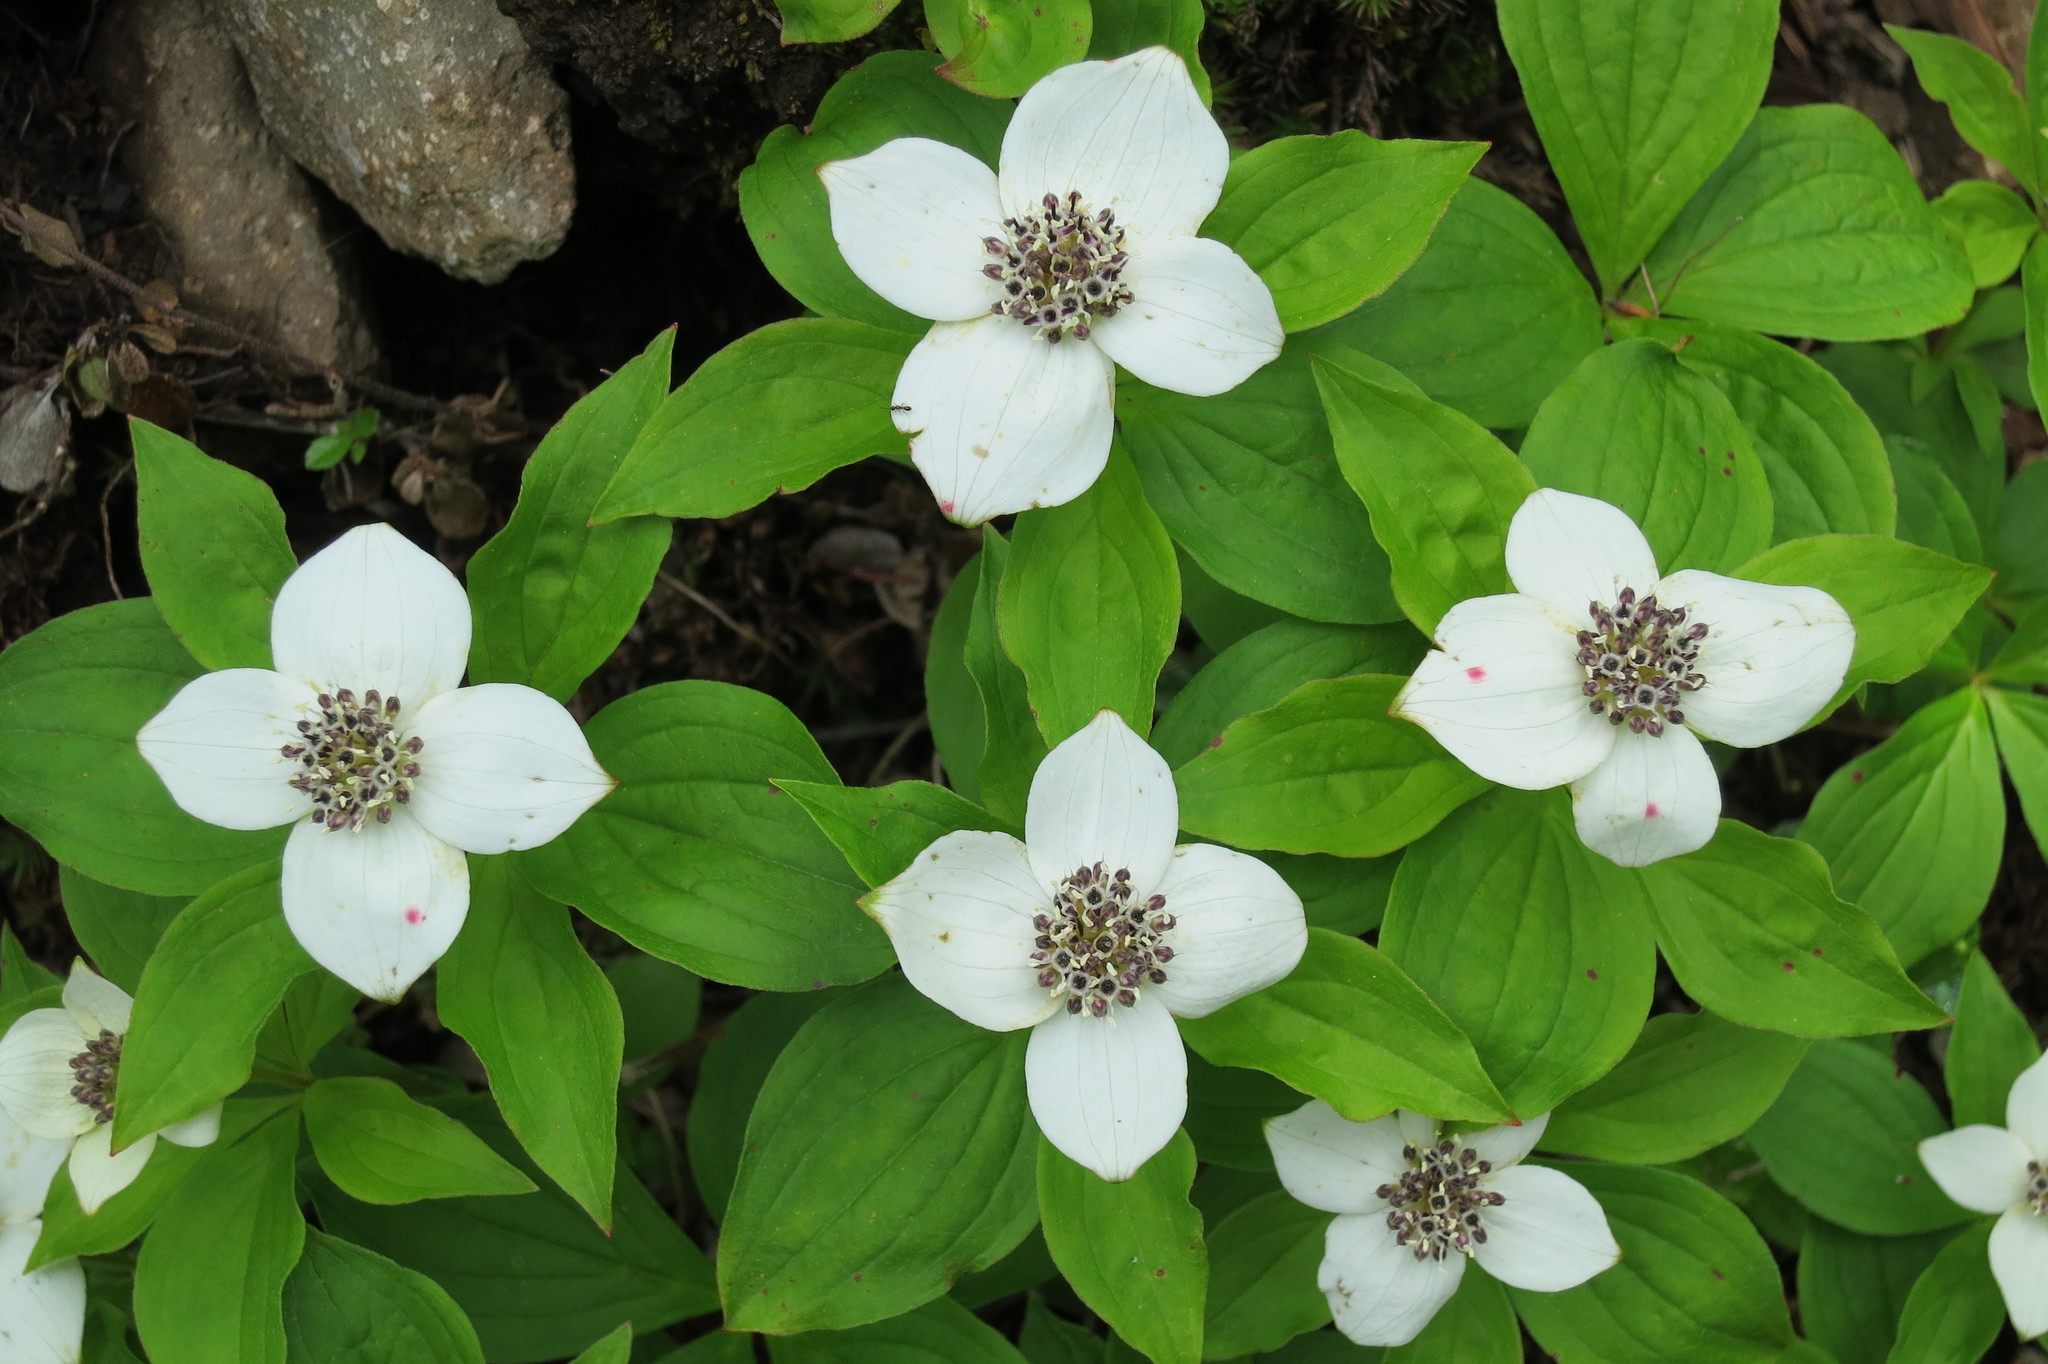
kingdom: Plantae
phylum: Tracheophyta
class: Magnoliopsida
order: Cornales
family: Cornaceae
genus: Cornus
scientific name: Cornus unalaschkensis
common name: Alaska bunchberry
